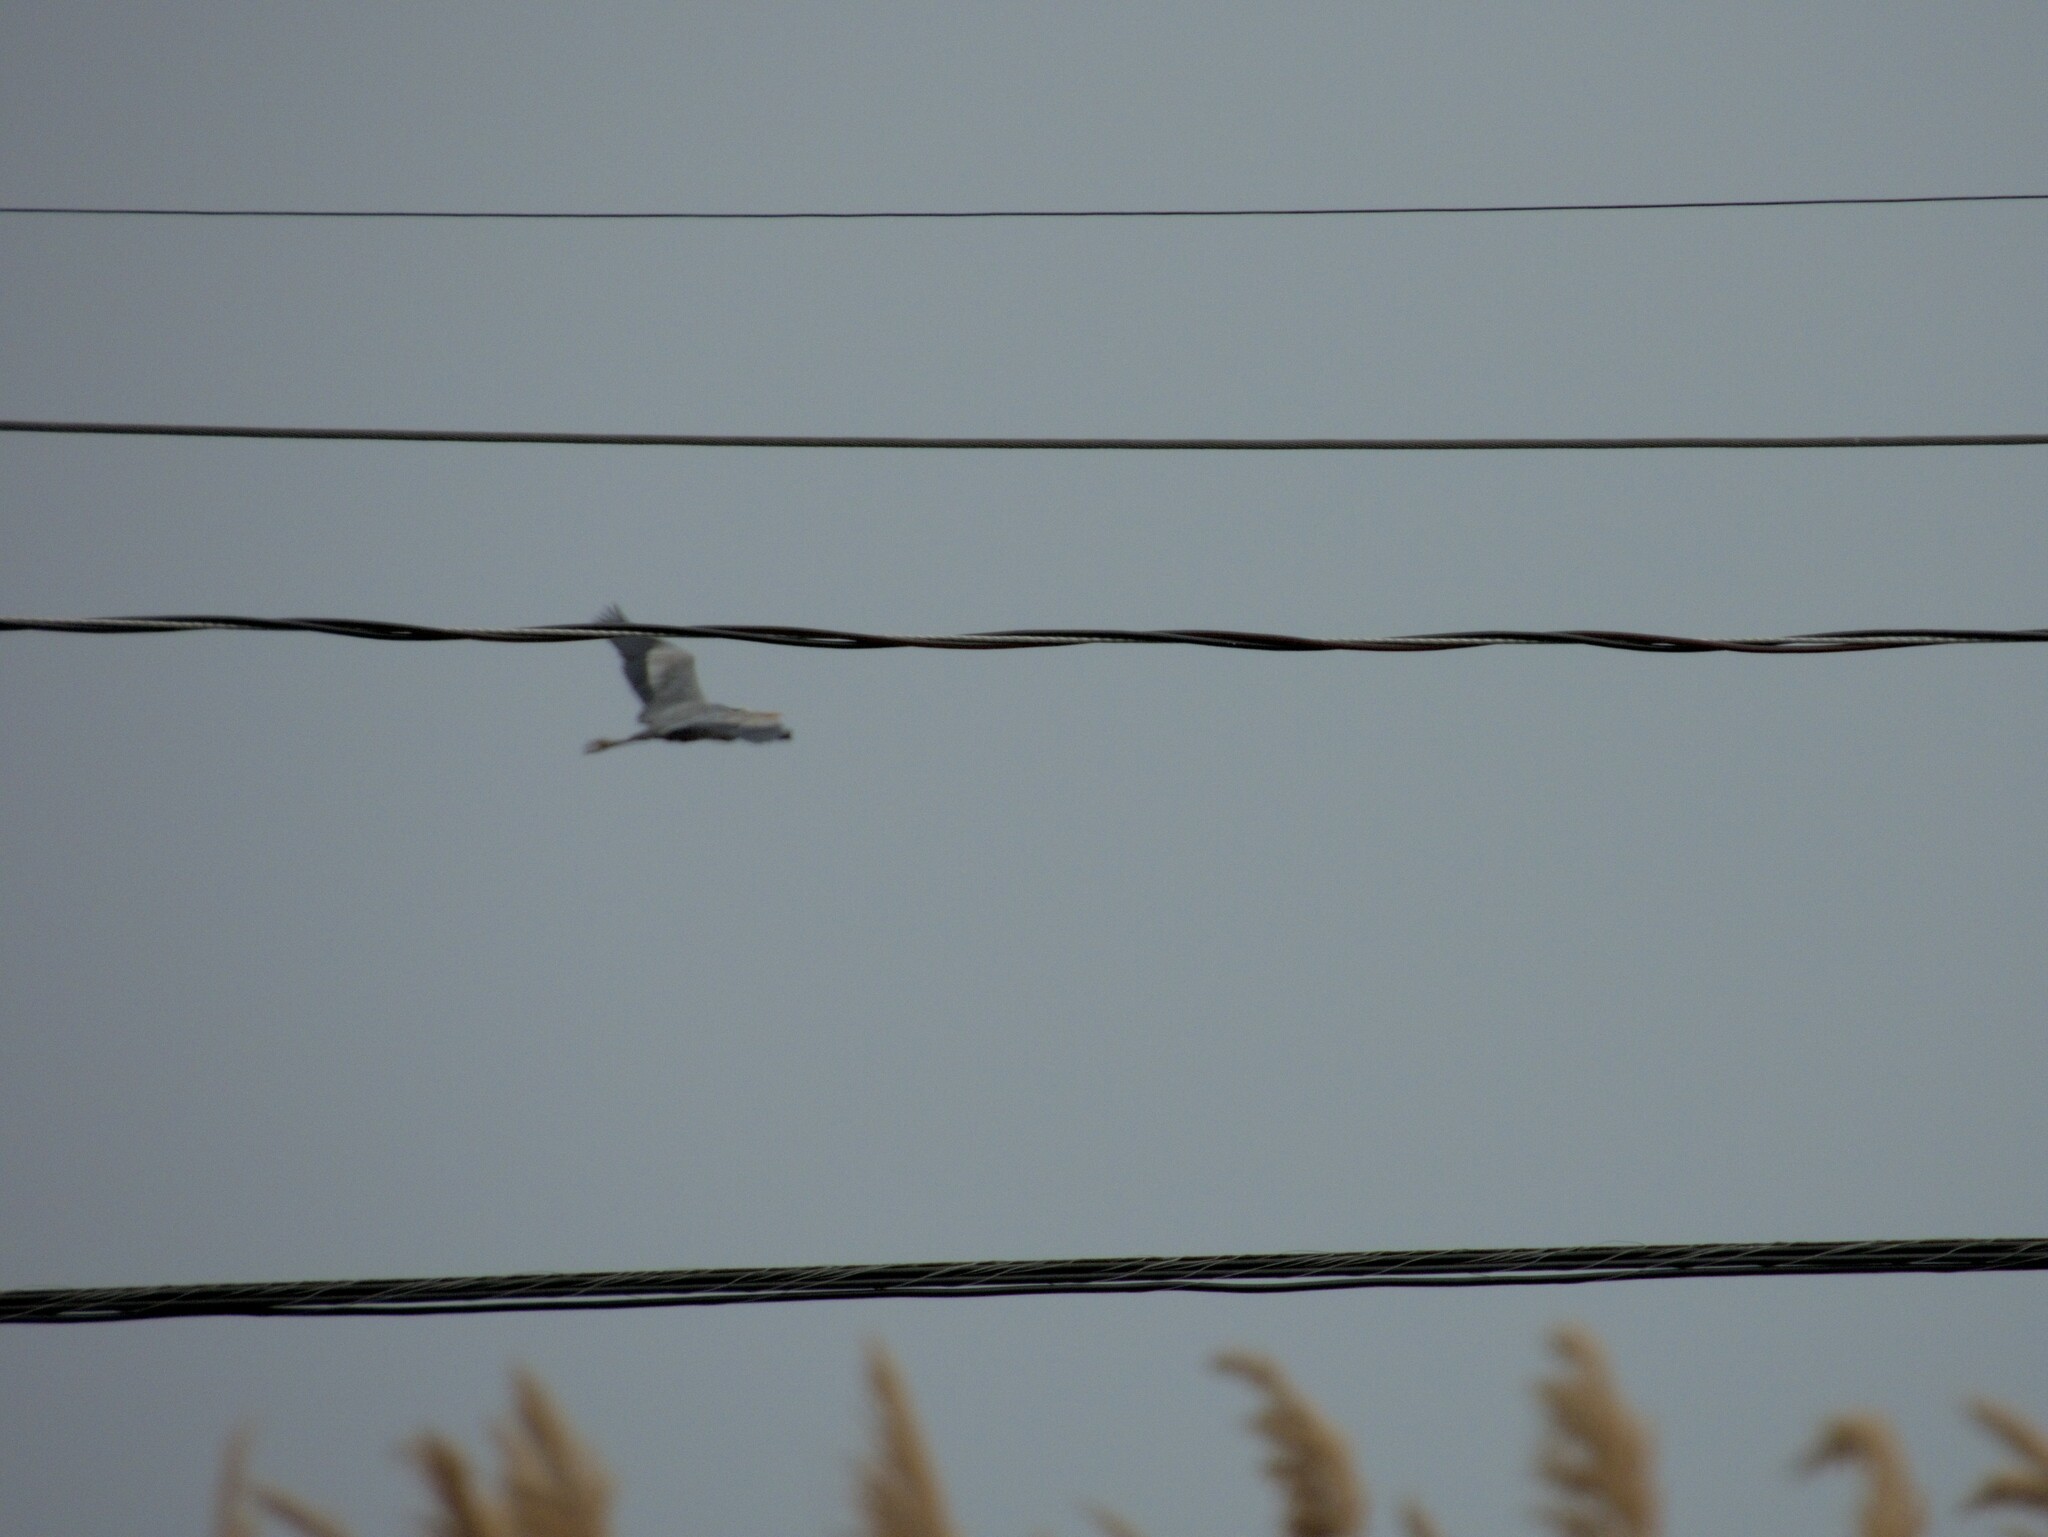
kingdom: Animalia
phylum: Chordata
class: Aves
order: Pelecaniformes
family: Ardeidae
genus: Ardea
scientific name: Ardea herodias
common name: Great blue heron
